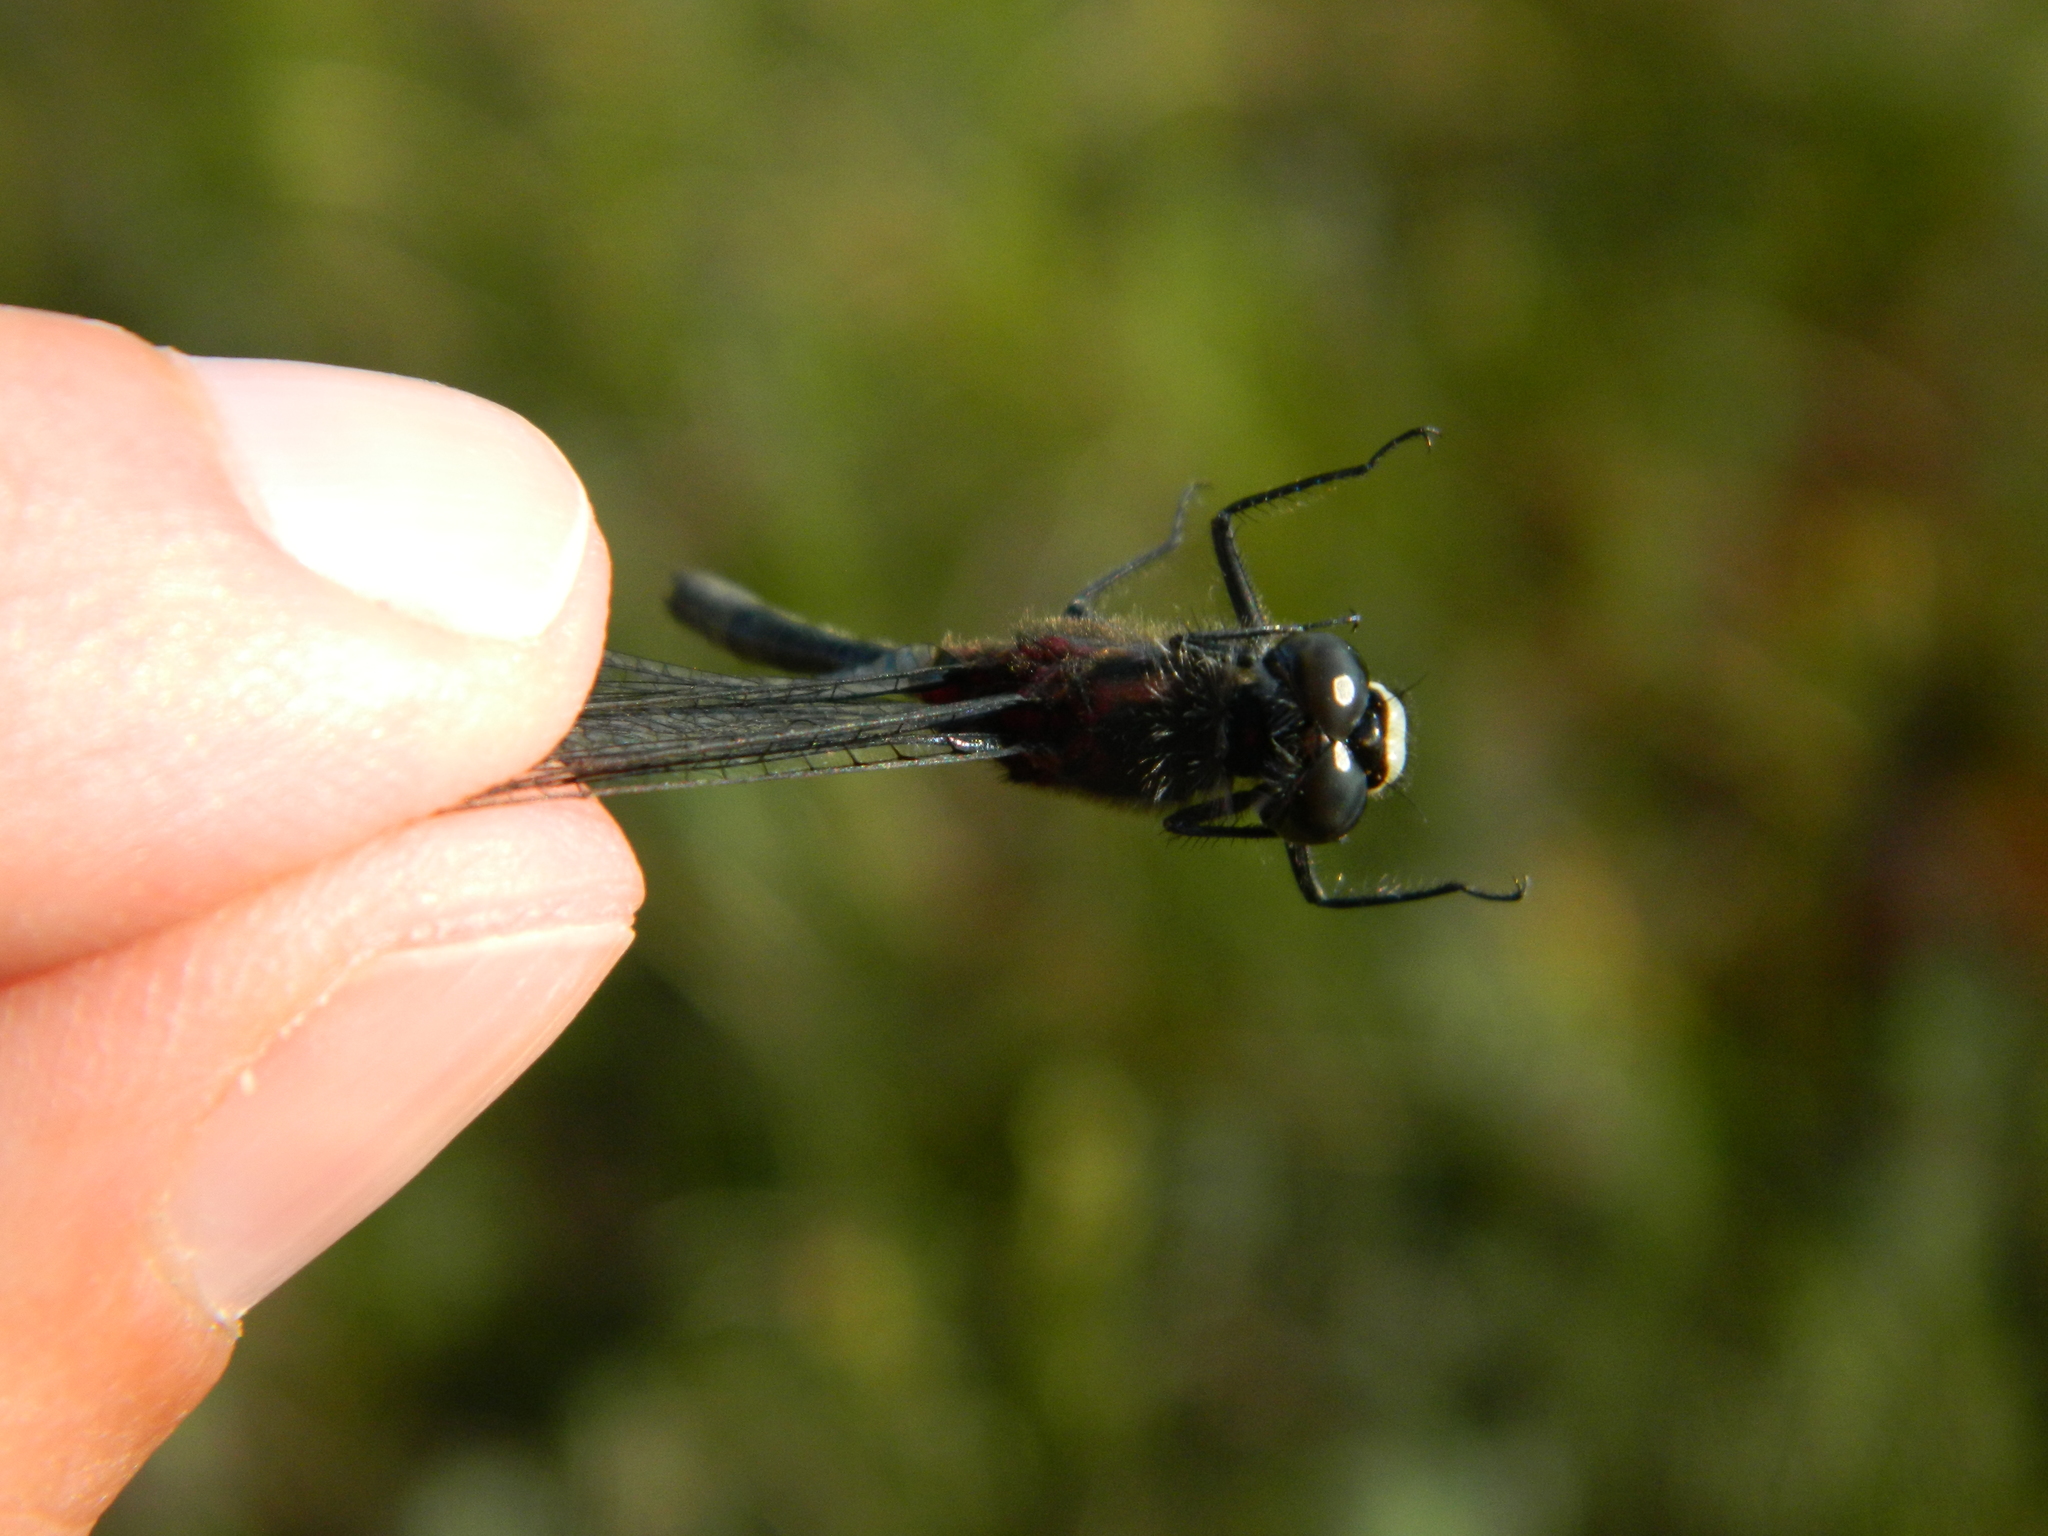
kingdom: Animalia
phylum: Arthropoda
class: Insecta
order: Odonata
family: Libellulidae
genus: Leucorrhinia
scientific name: Leucorrhinia glacialis
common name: Crimson-ringed whiteface
